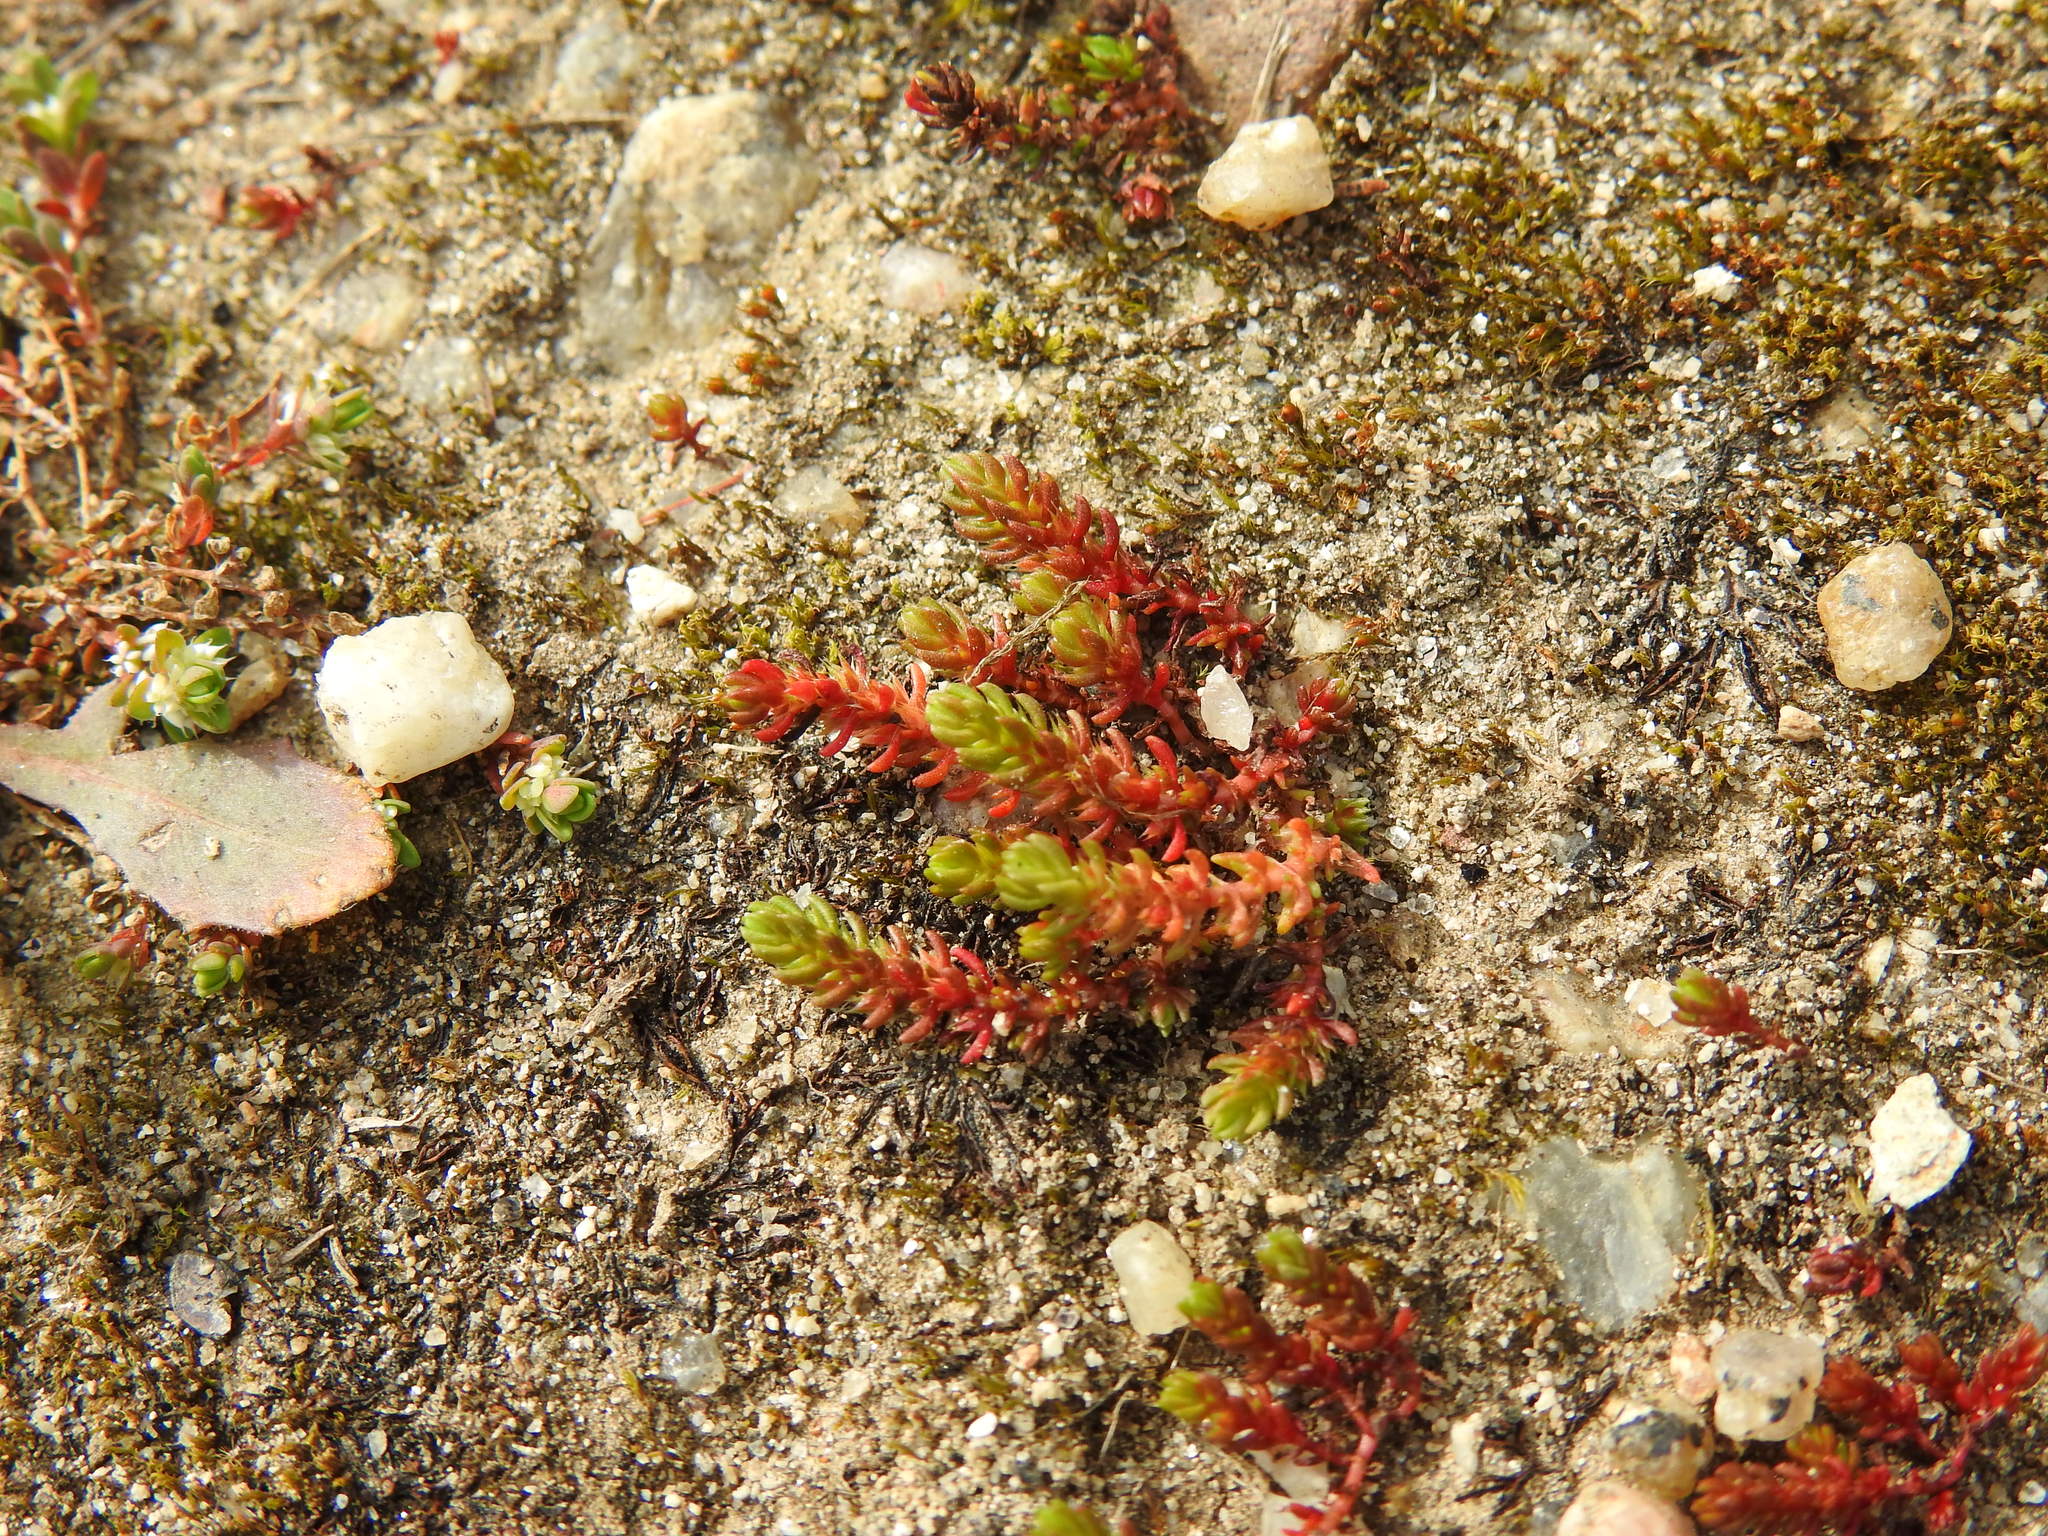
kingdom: Plantae
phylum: Tracheophyta
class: Magnoliopsida
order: Saxifragales
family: Crassulaceae
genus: Crassula
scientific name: Crassula tillaea
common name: Mossy stonecrop
